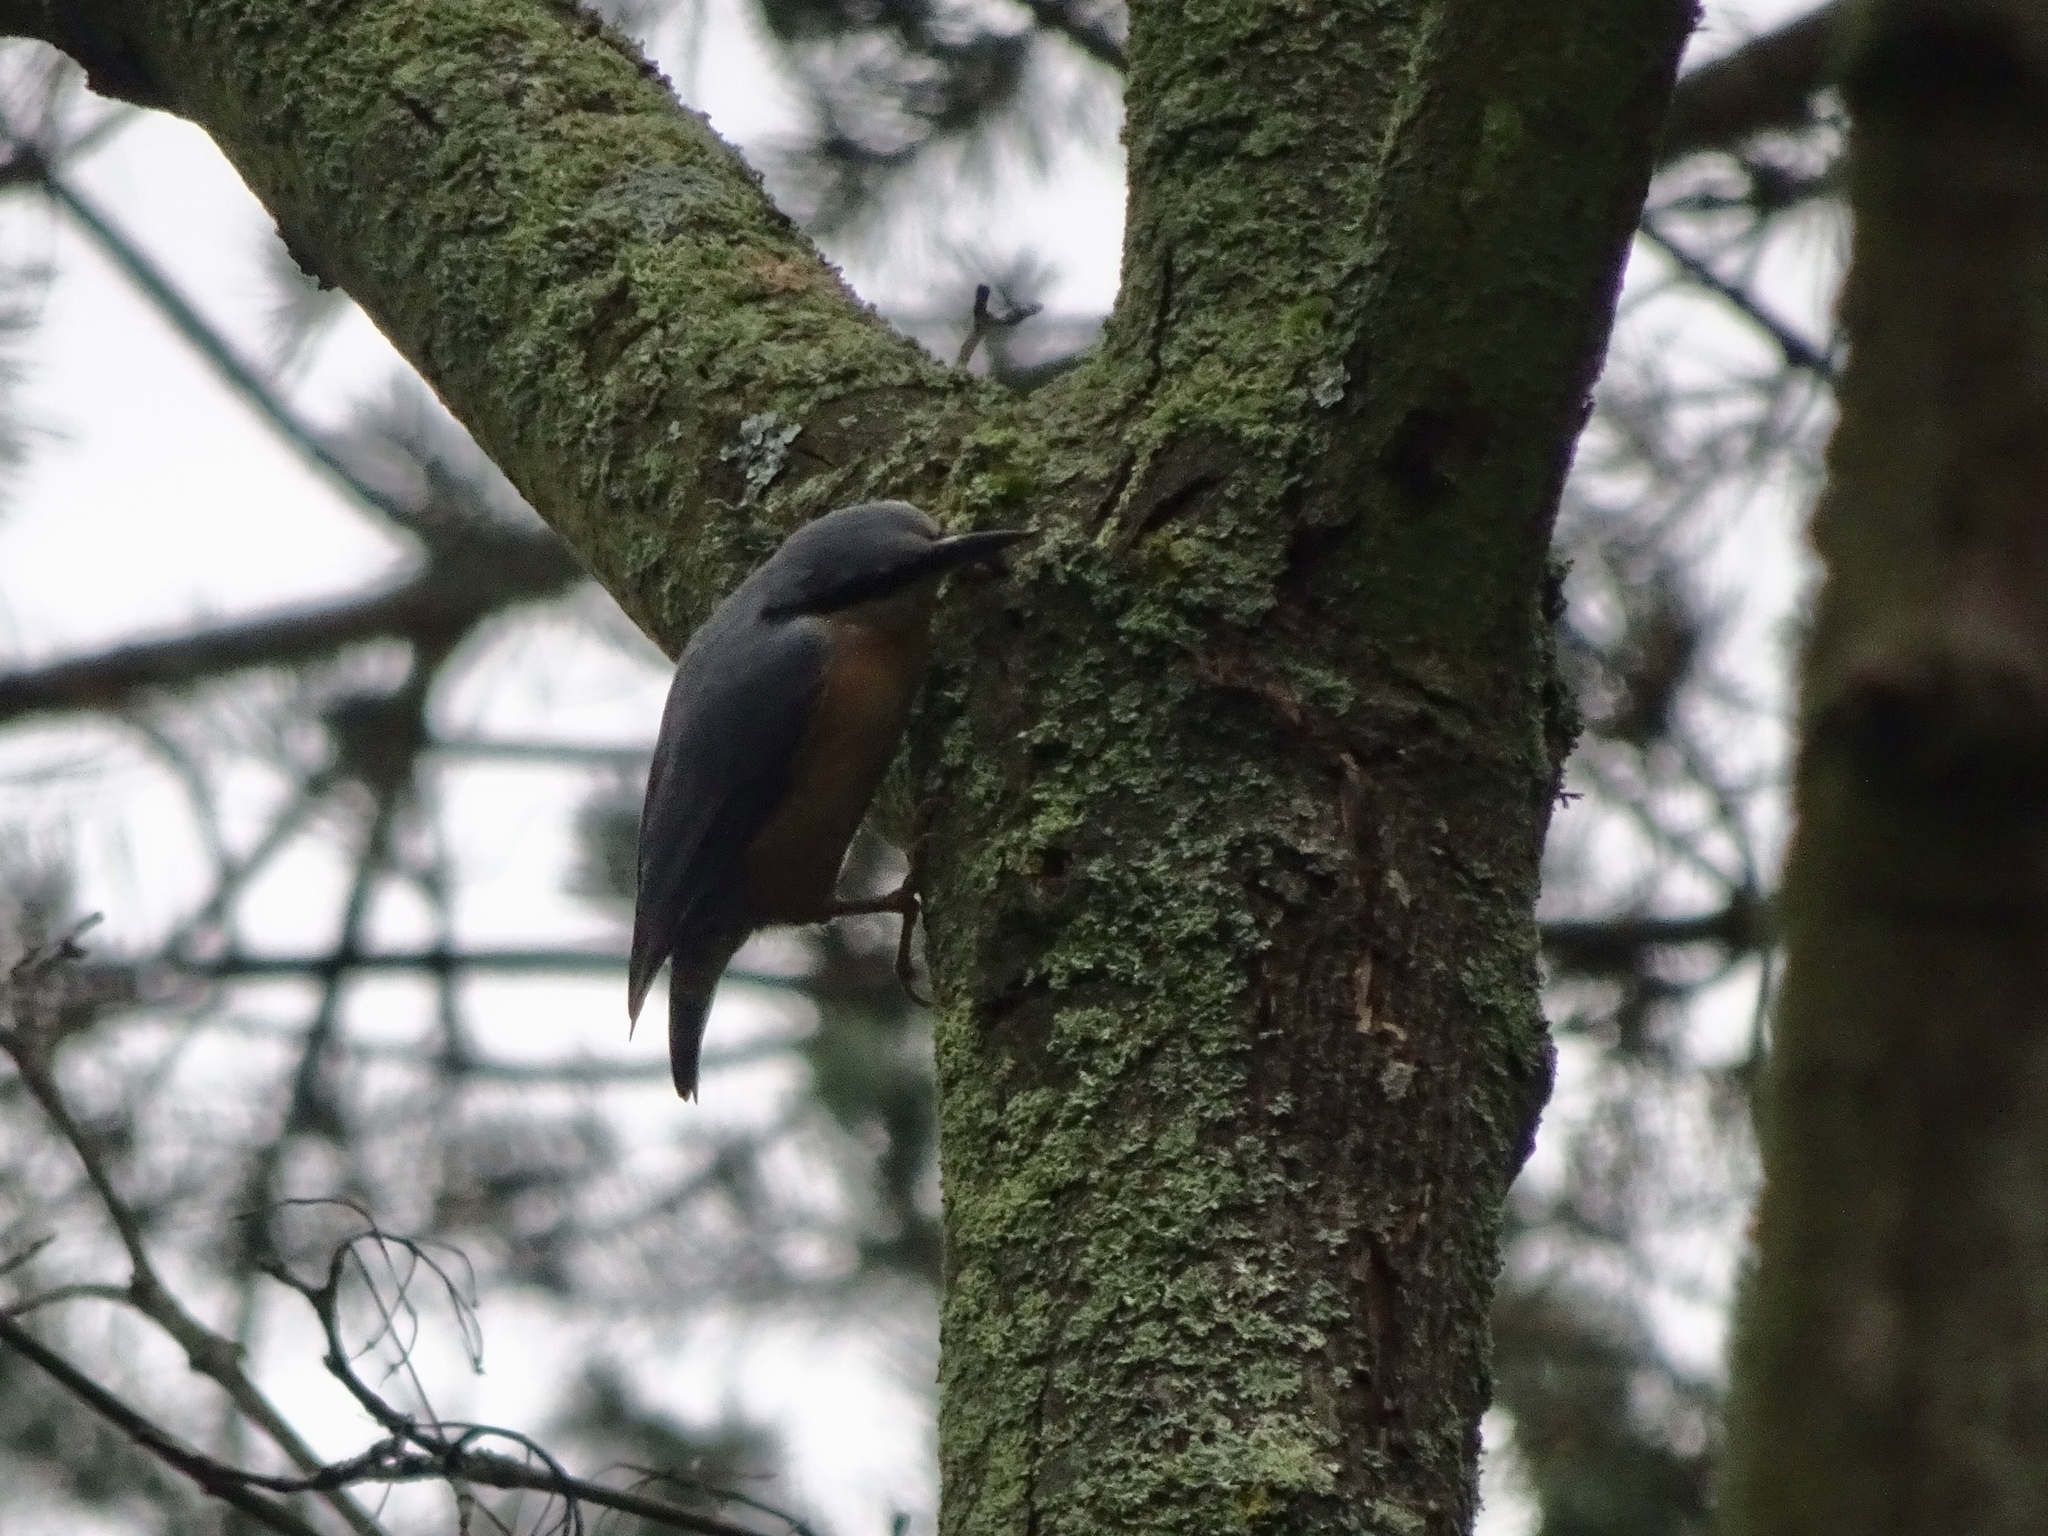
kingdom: Animalia
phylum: Chordata
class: Aves
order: Passeriformes
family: Sittidae
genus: Sitta
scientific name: Sitta europaea
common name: Eurasian nuthatch
